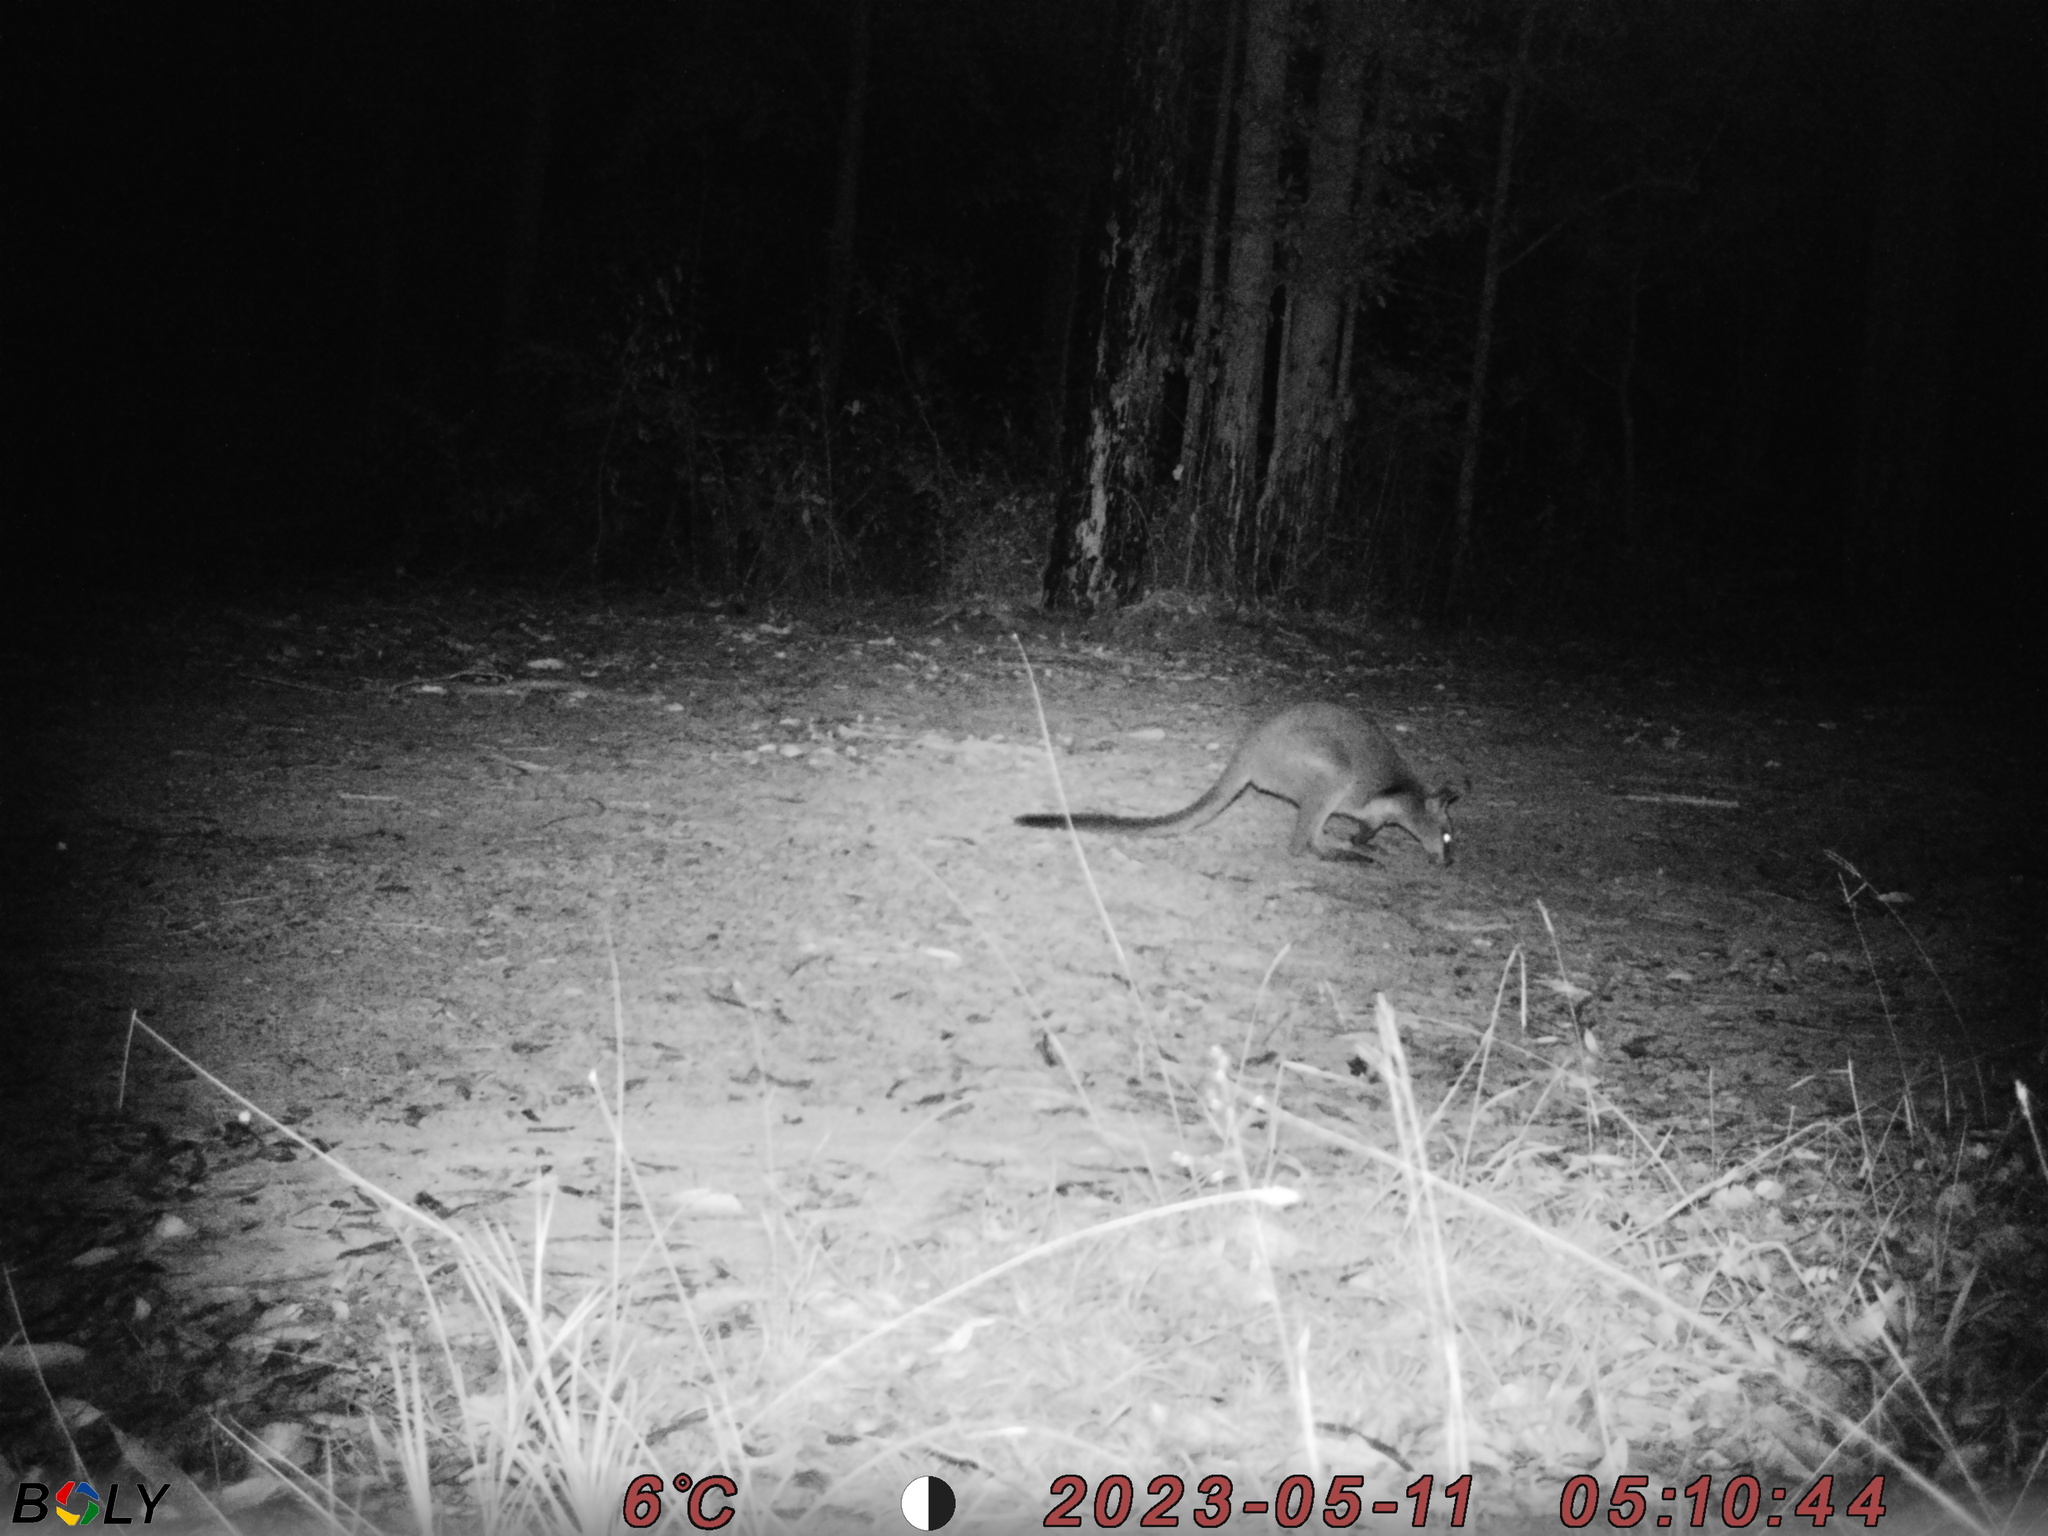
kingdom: Animalia
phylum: Chordata
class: Mammalia
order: Diprotodontia
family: Macropodidae
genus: Wallabia
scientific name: Wallabia bicolor
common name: Swamp wallaby
